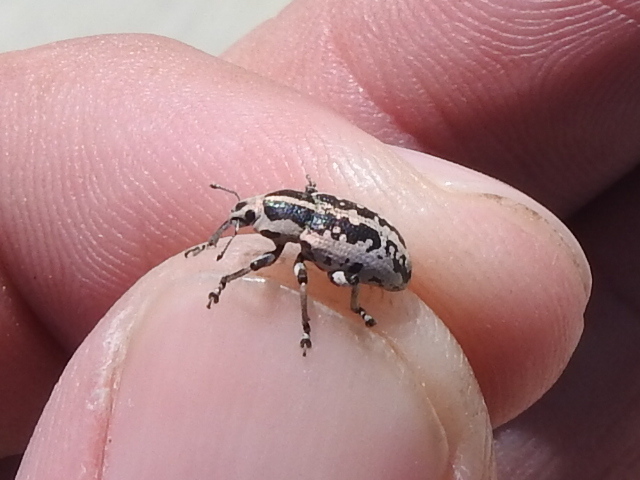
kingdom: Animalia
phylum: Arthropoda
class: Insecta
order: Coleoptera
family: Curculionidae
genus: Eudiagogus
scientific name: Eudiagogus rosenschoeldi
